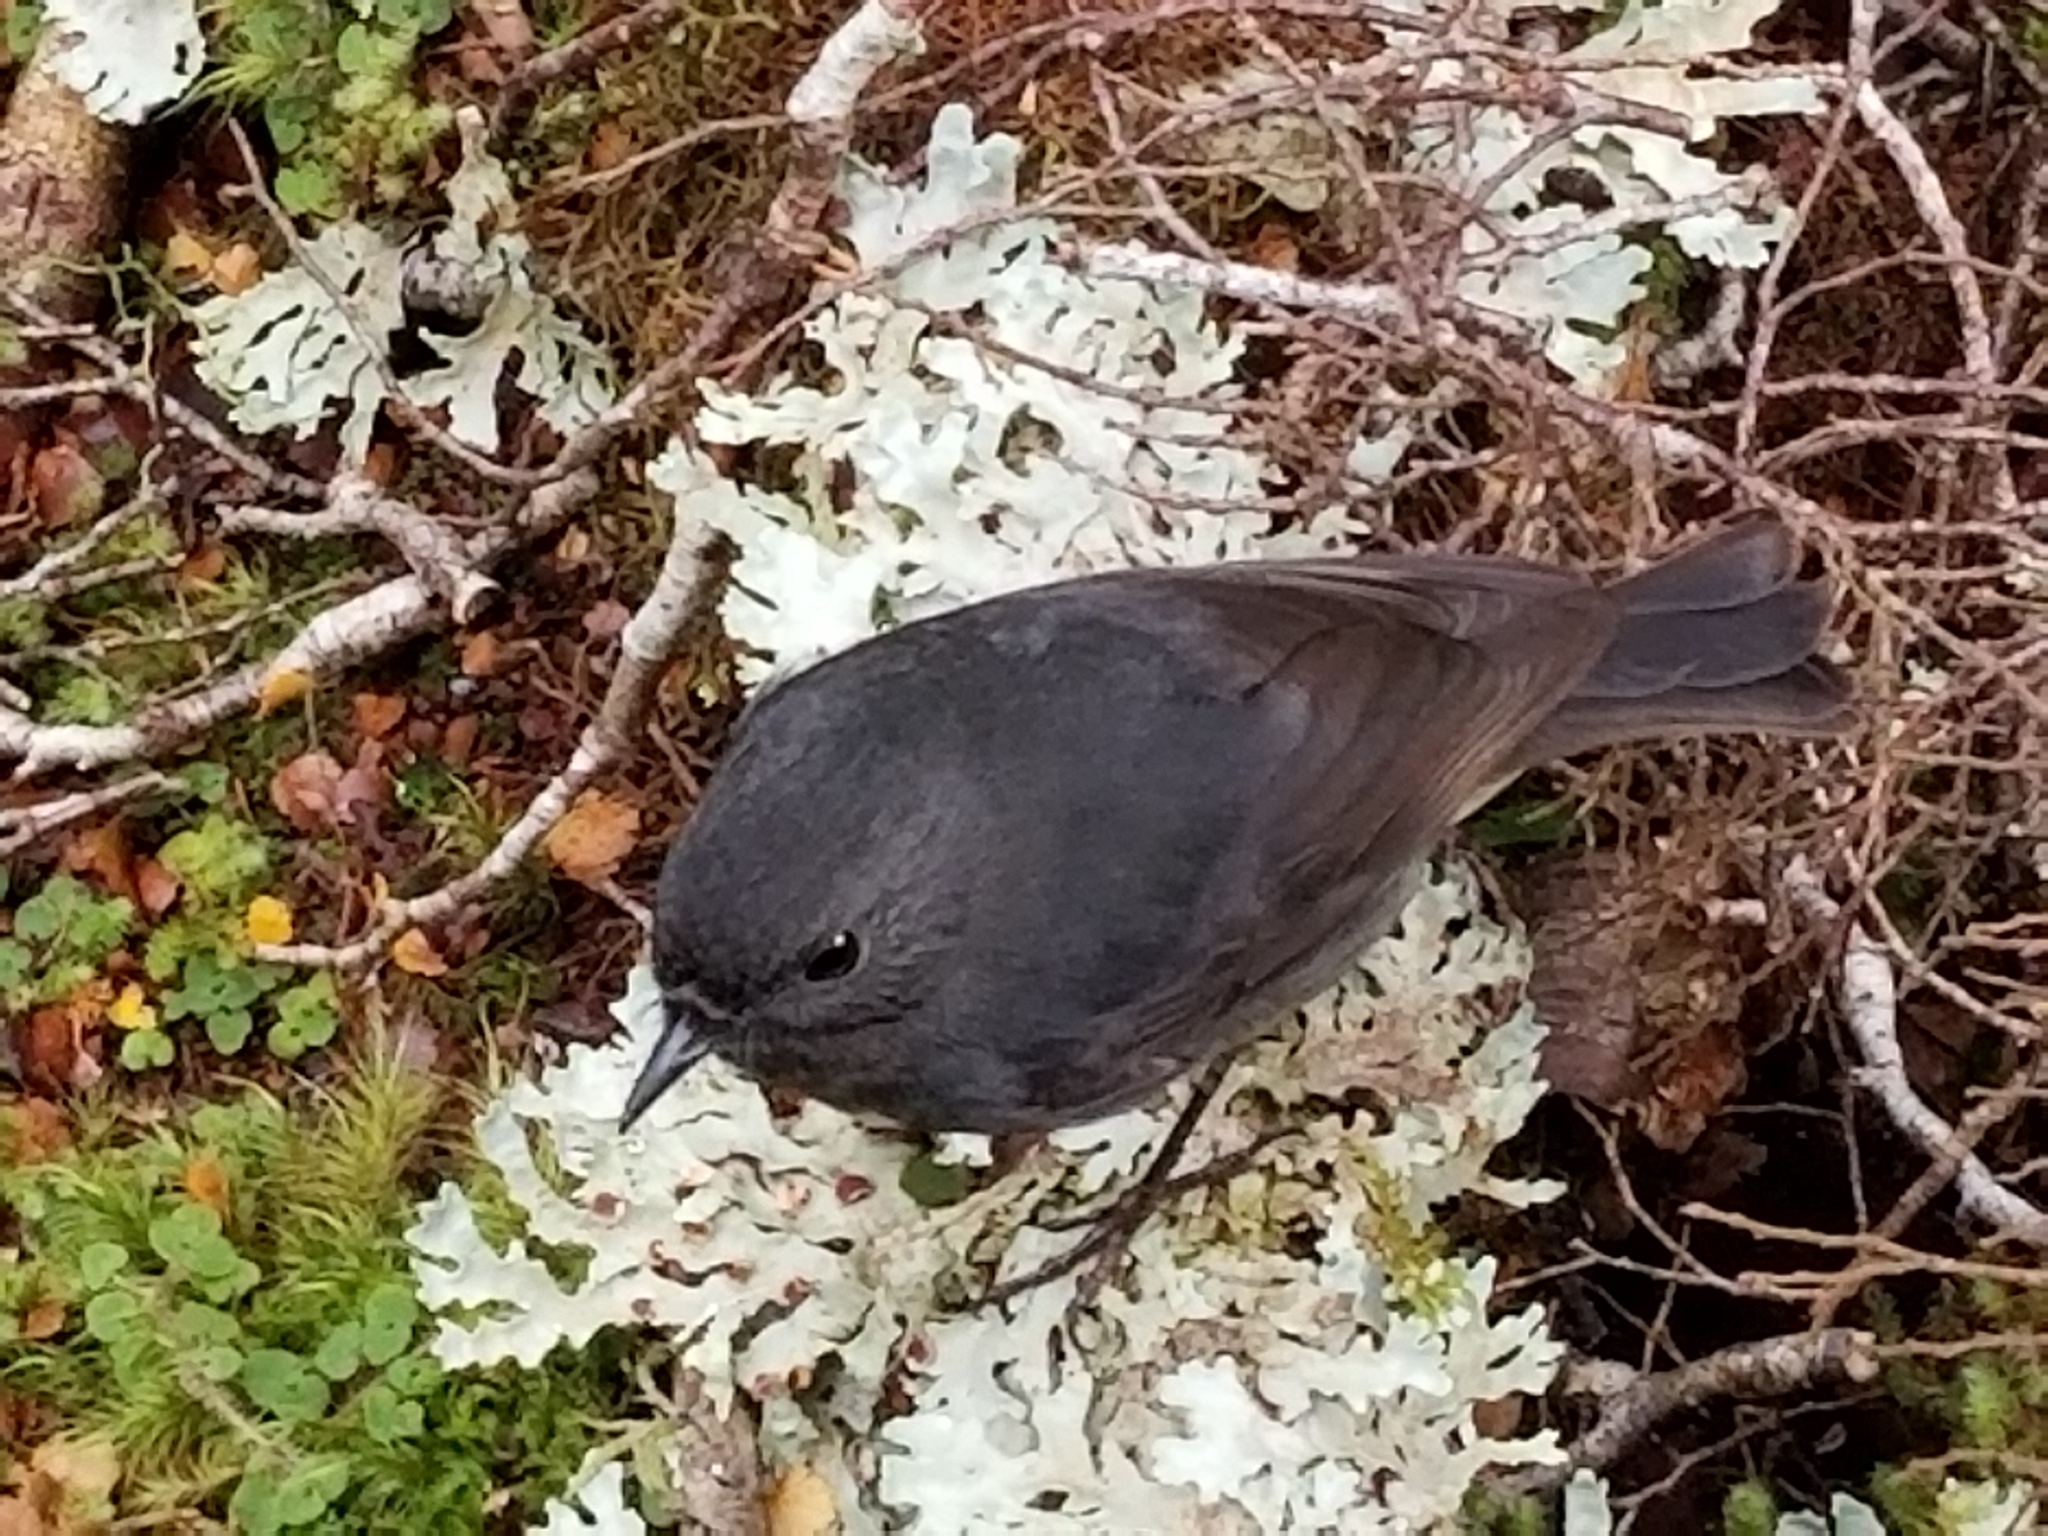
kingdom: Animalia
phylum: Chordata
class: Aves
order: Passeriformes
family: Petroicidae
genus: Petroica
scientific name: Petroica australis
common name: New zealand robin
